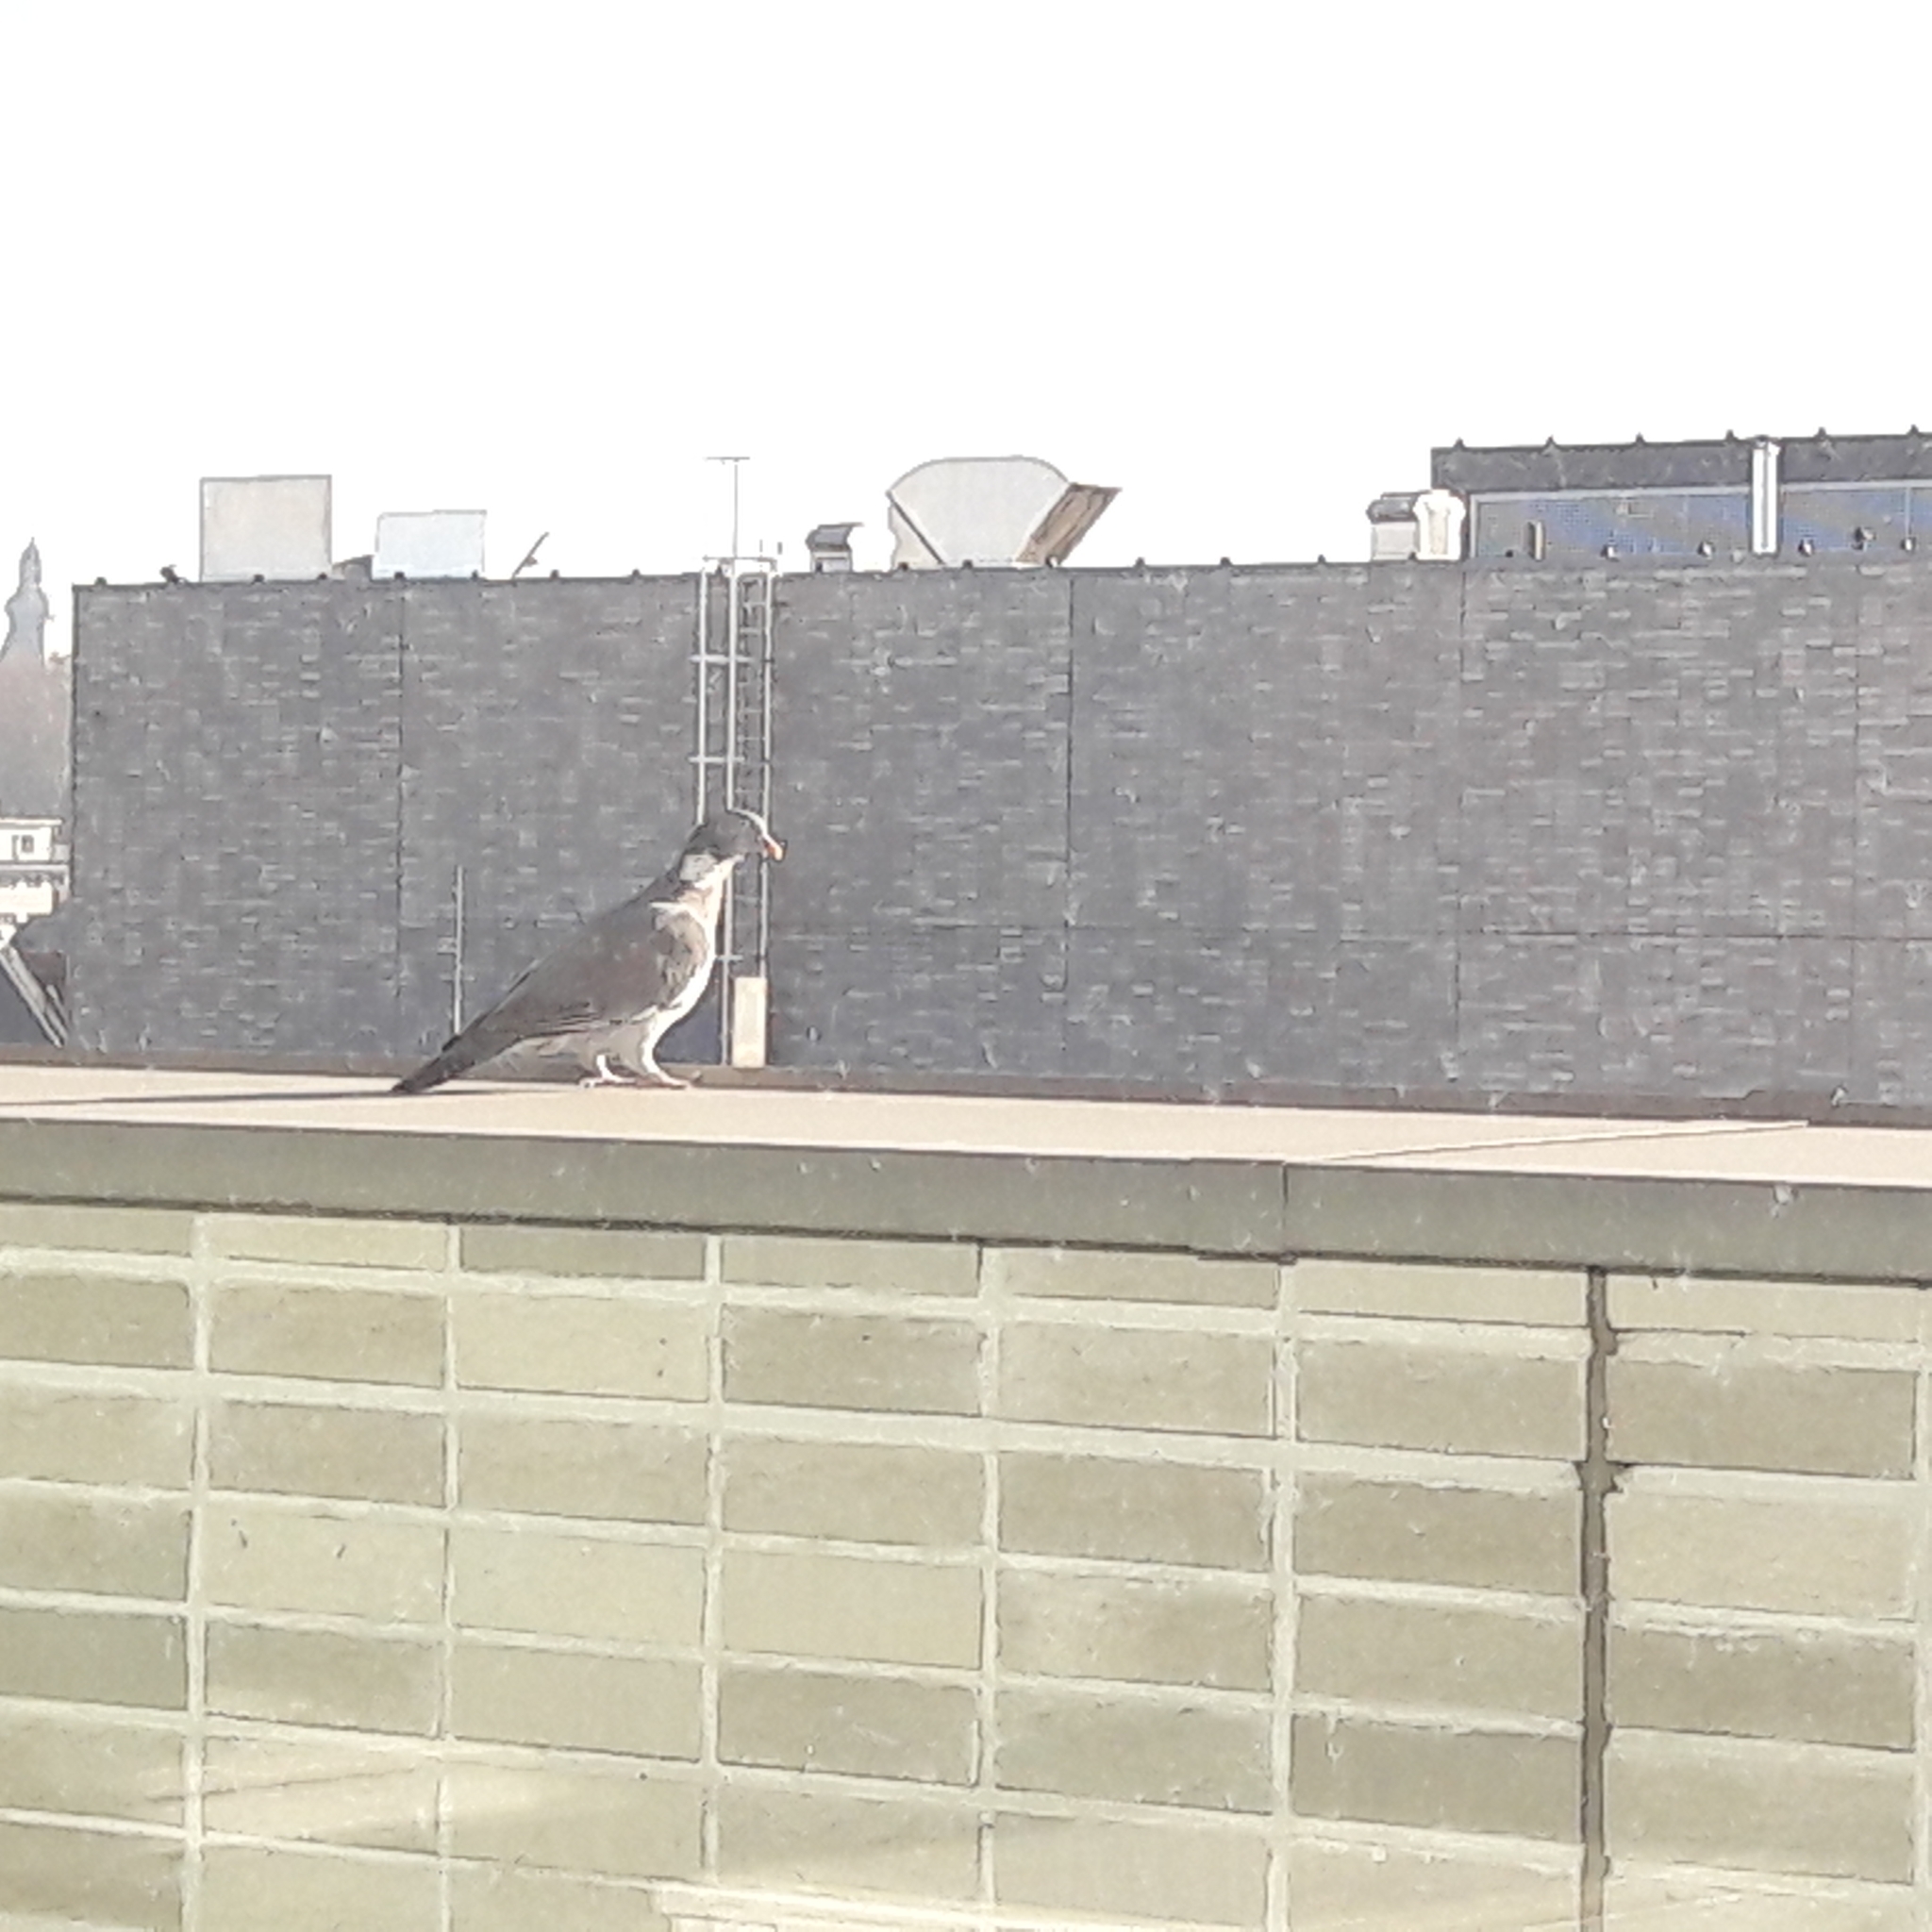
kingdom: Animalia
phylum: Chordata
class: Aves
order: Columbiformes
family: Columbidae
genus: Columba
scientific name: Columba palumbus
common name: Common wood pigeon
